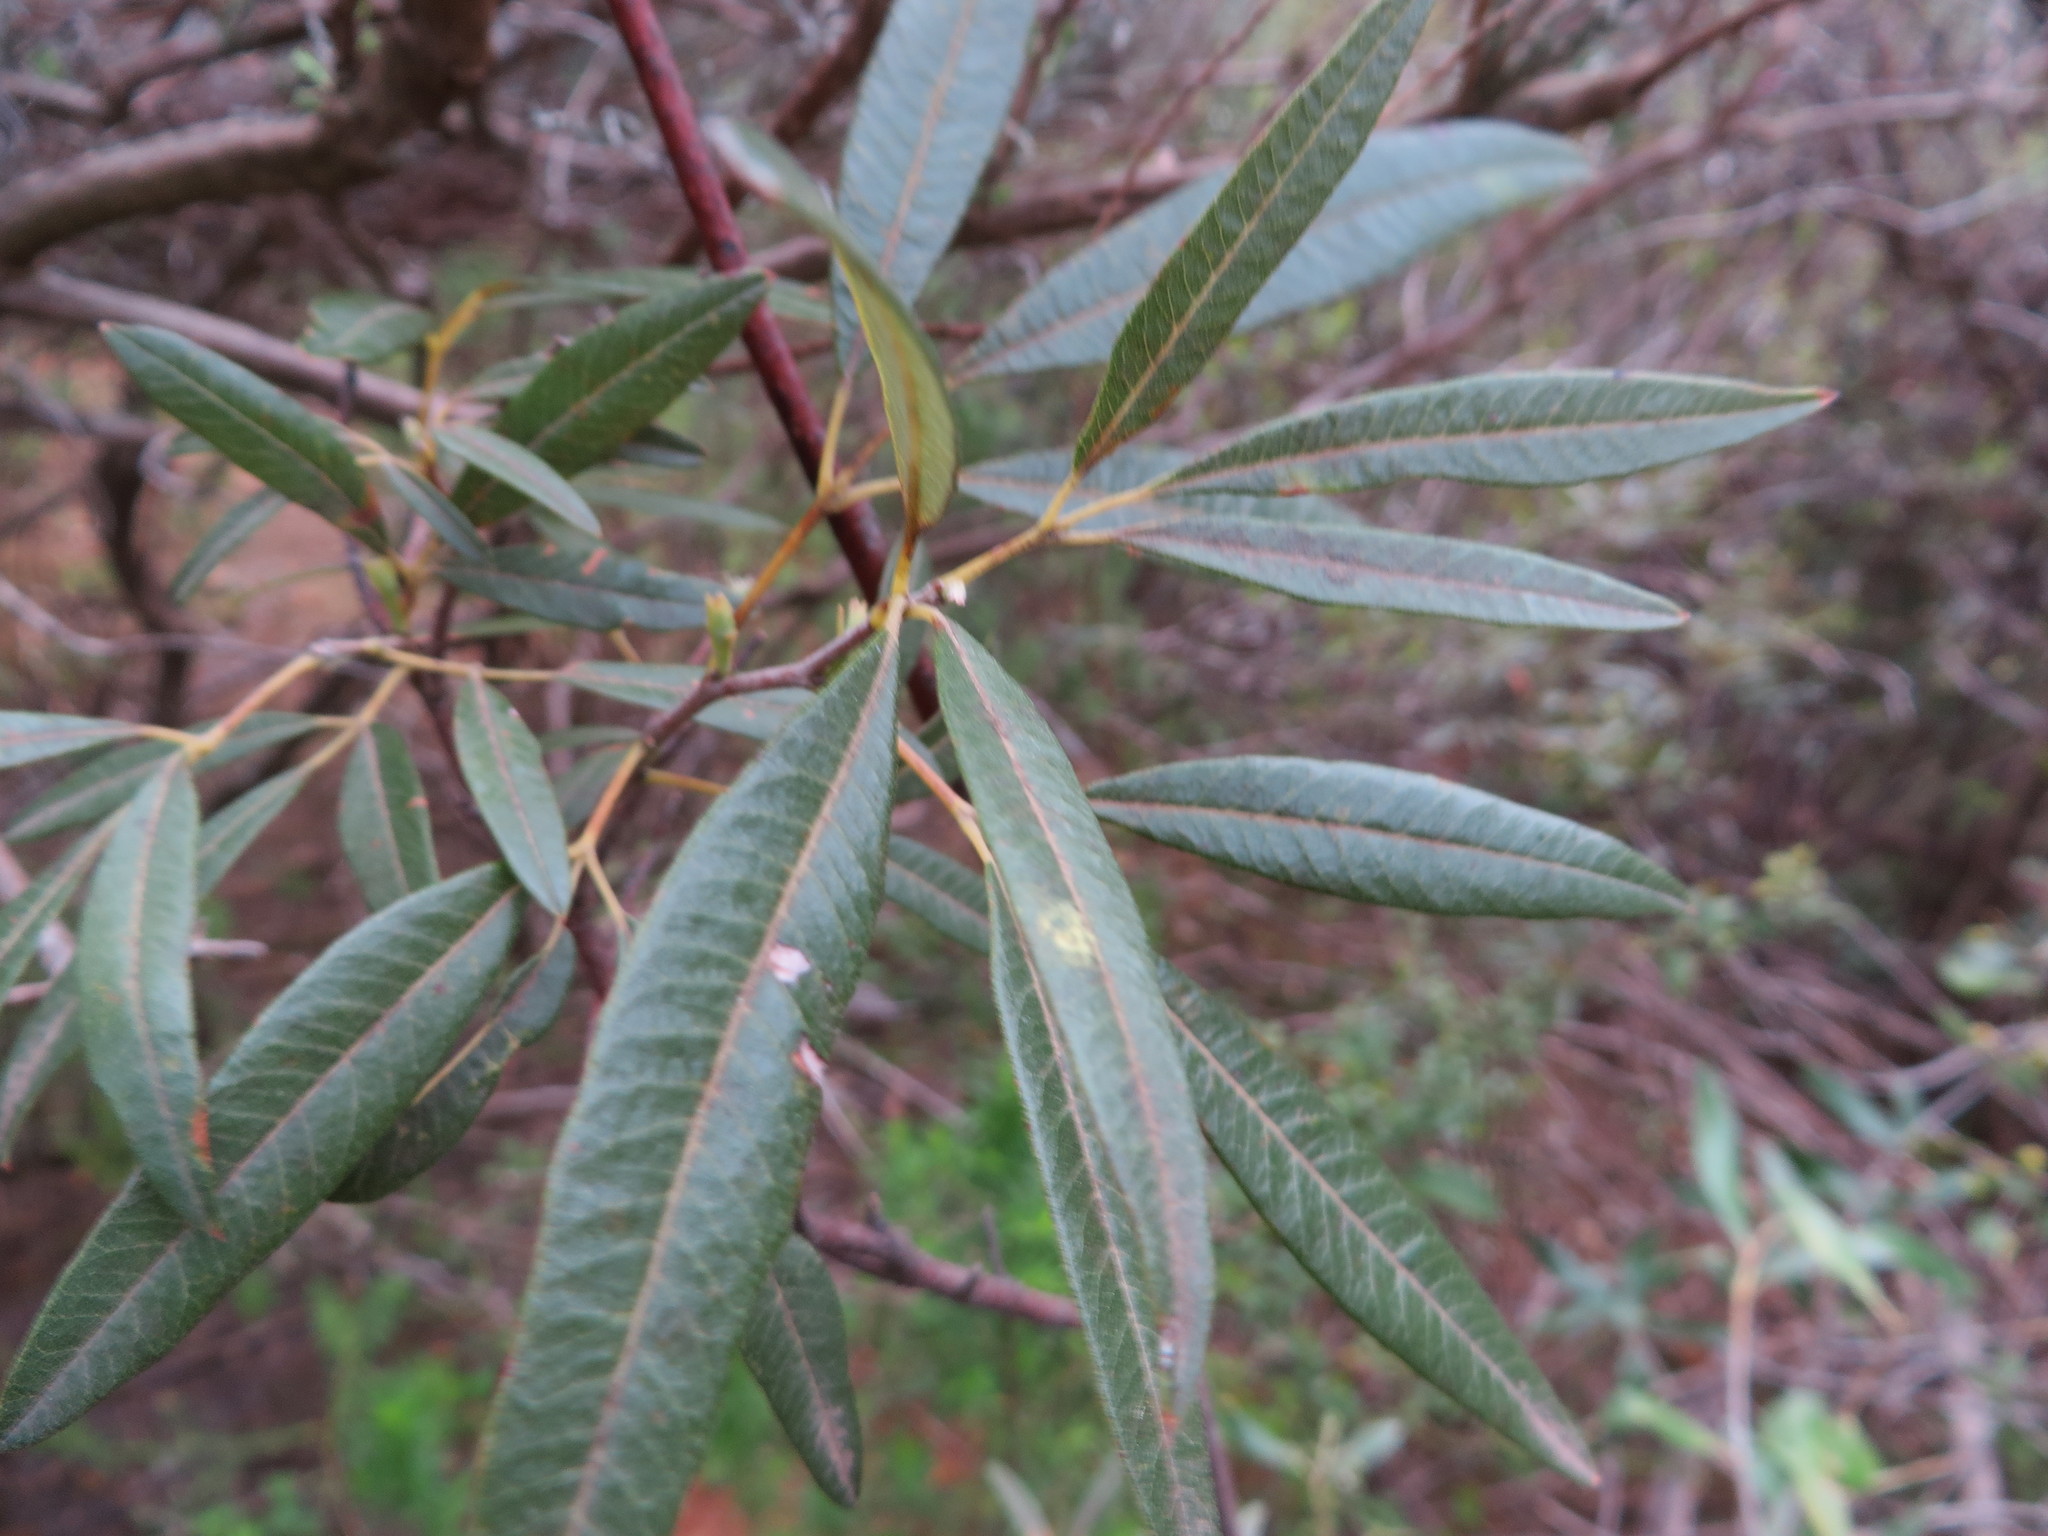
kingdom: Plantae
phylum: Tracheophyta
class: Magnoliopsida
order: Sapindales
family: Anacardiaceae
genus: Searsia
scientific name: Searsia angustifolia
